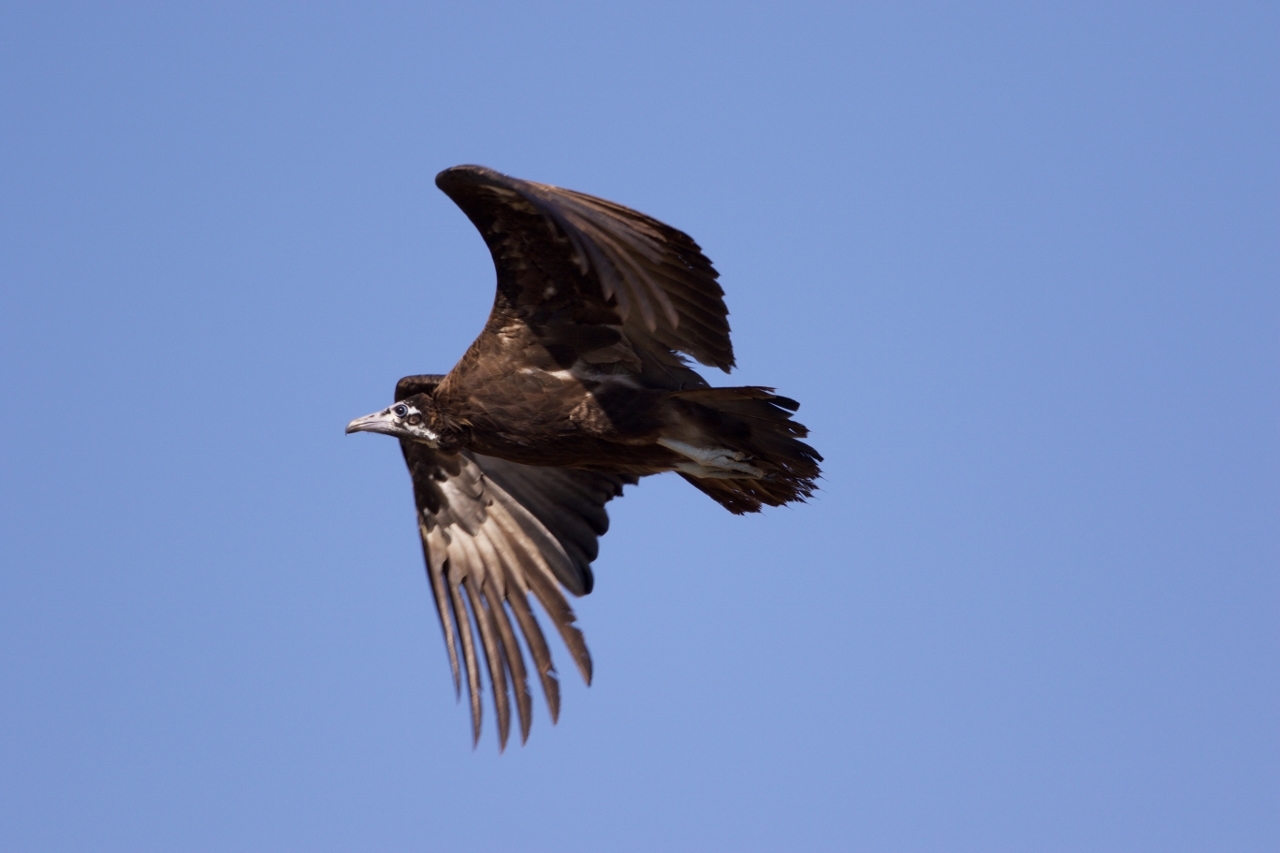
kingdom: Animalia
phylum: Chordata
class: Aves
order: Accipitriformes
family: Accipitridae
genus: Necrosyrtes
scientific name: Necrosyrtes monachus
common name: Hooded vulture
